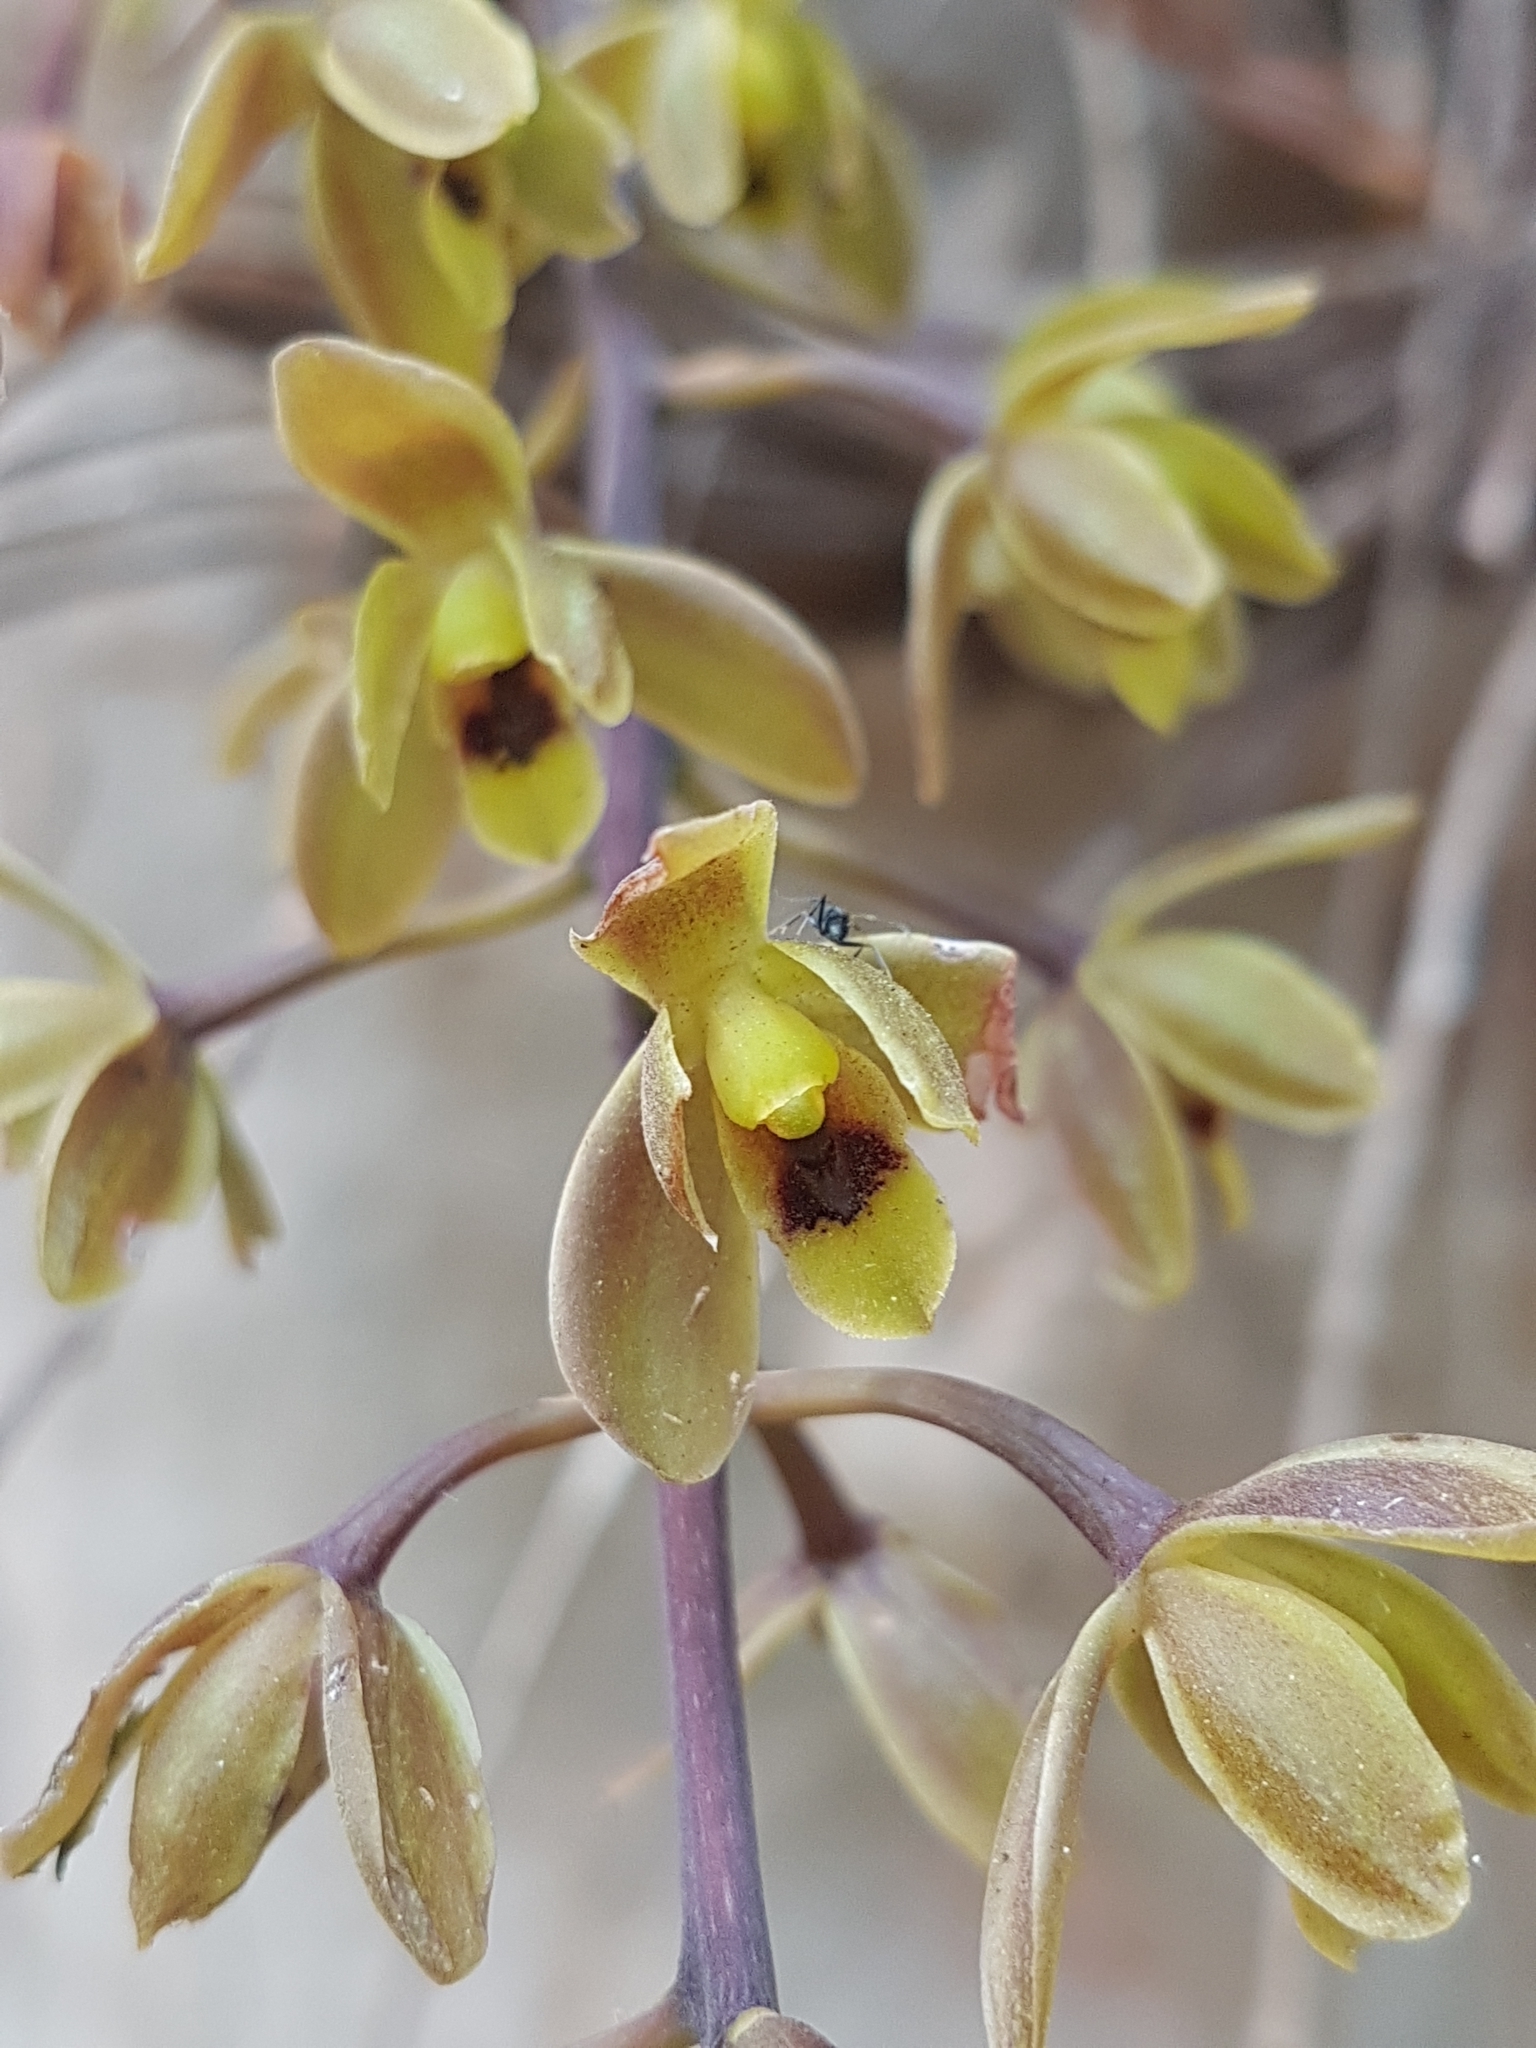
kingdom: Plantae
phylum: Tracheophyta
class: Liliopsida
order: Asparagales
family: Orchidaceae
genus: Cymbidium
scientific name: Cymbidium suave
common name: Snake orchid
